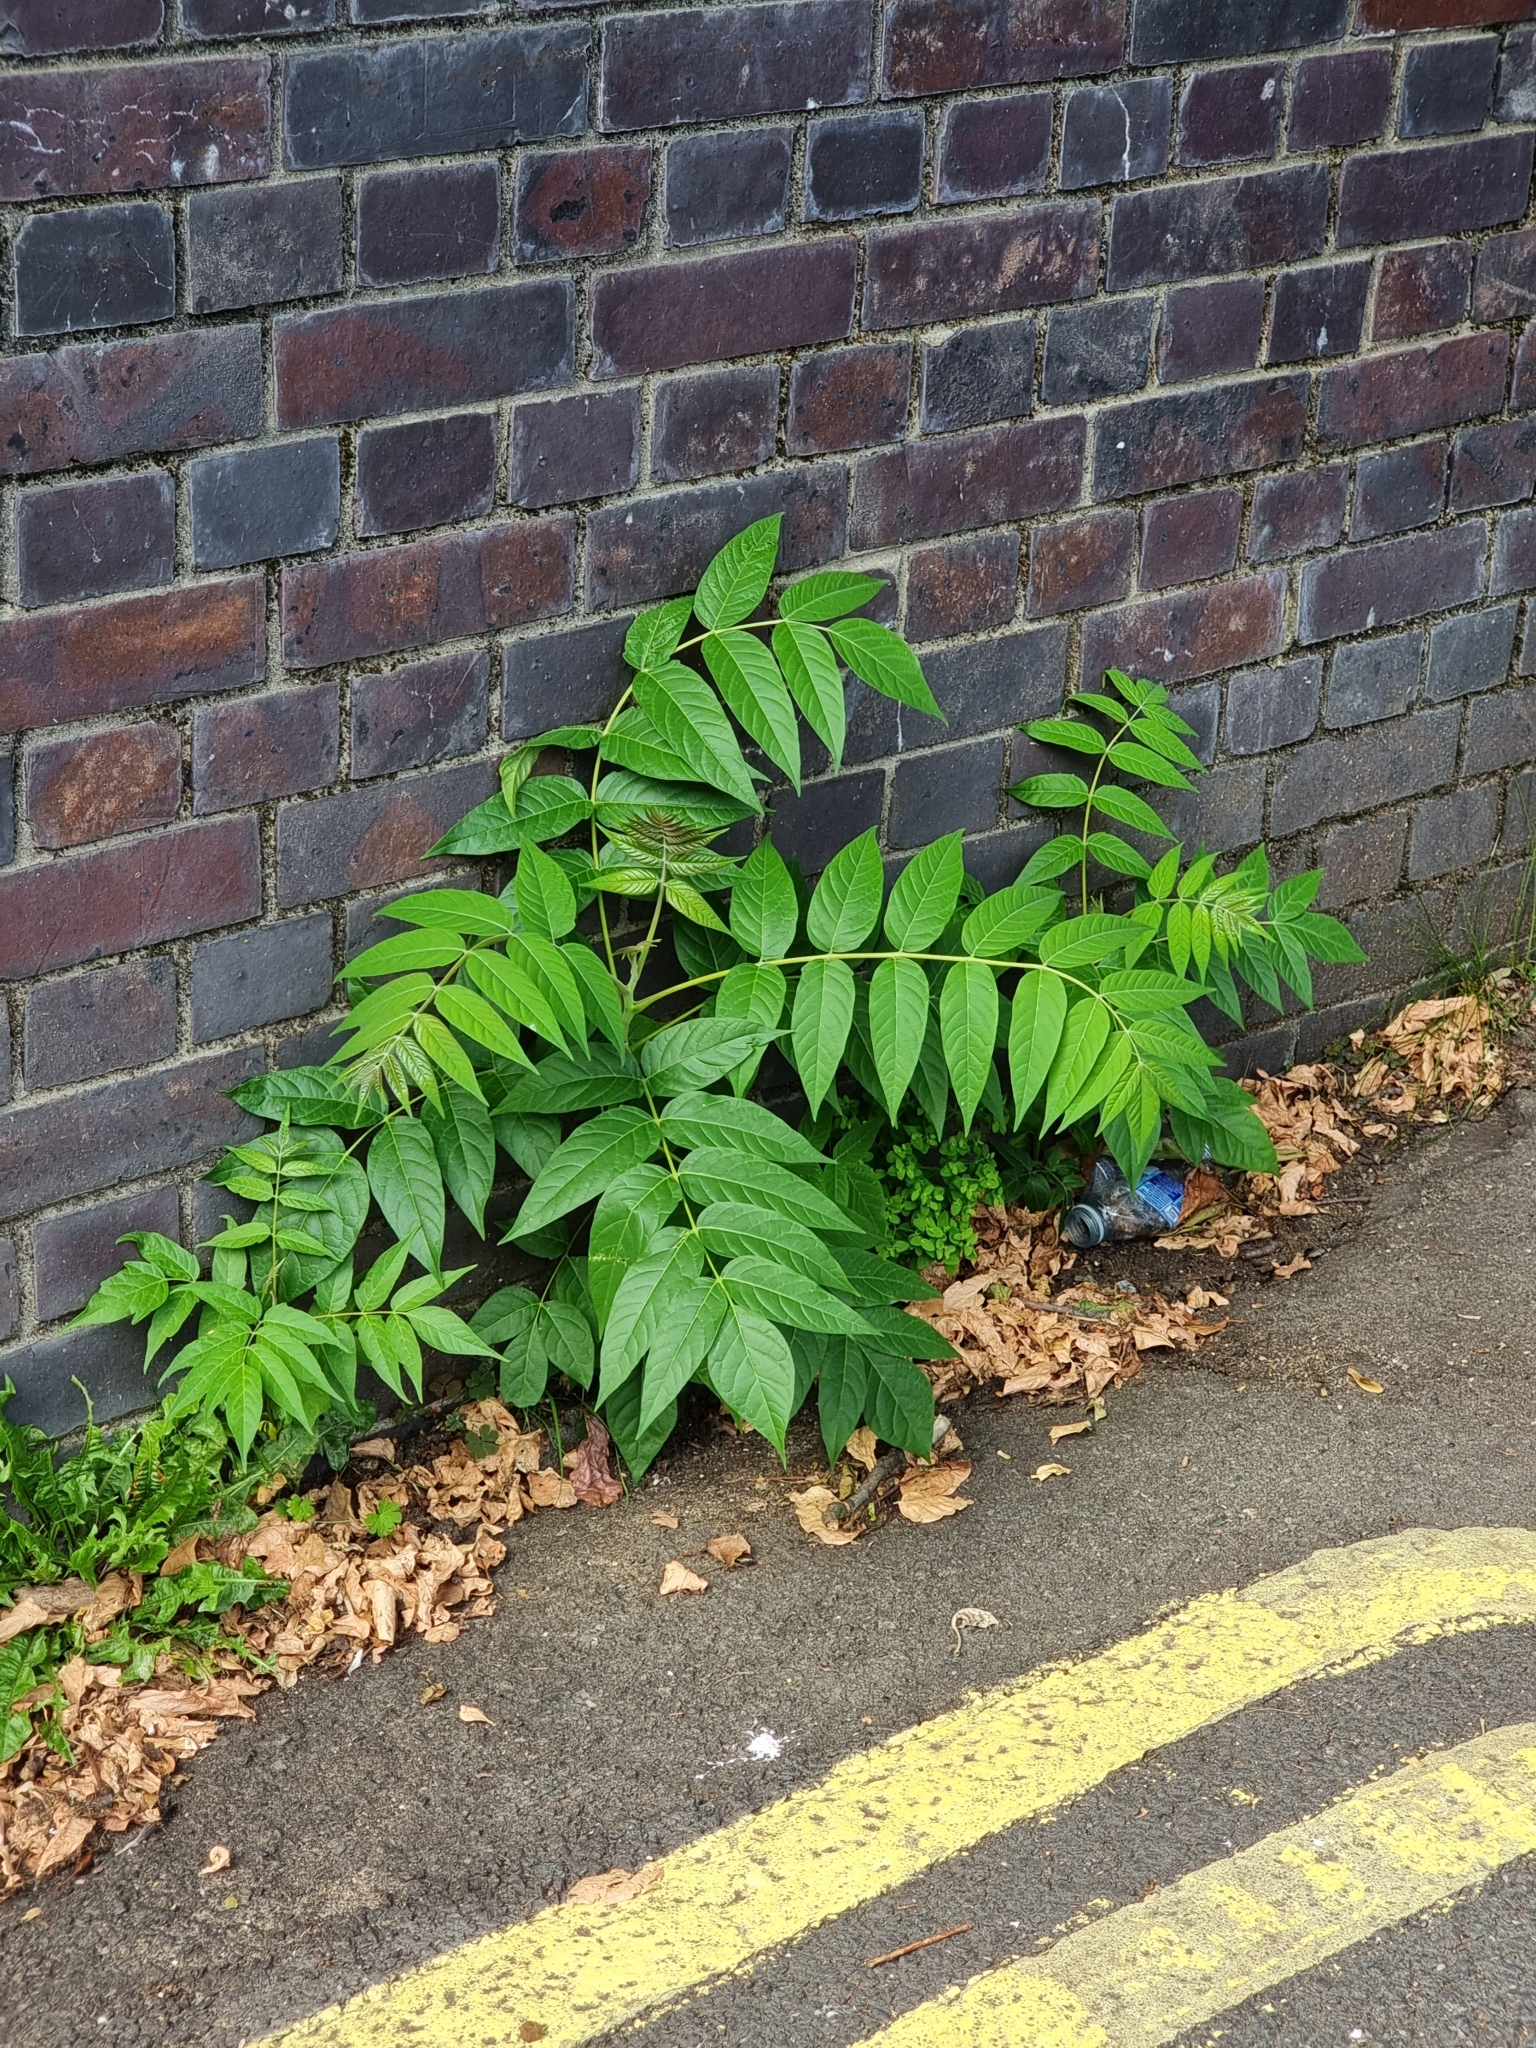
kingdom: Plantae
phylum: Tracheophyta
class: Magnoliopsida
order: Sapindales
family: Simaroubaceae
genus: Ailanthus
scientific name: Ailanthus altissima
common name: Tree-of-heaven
